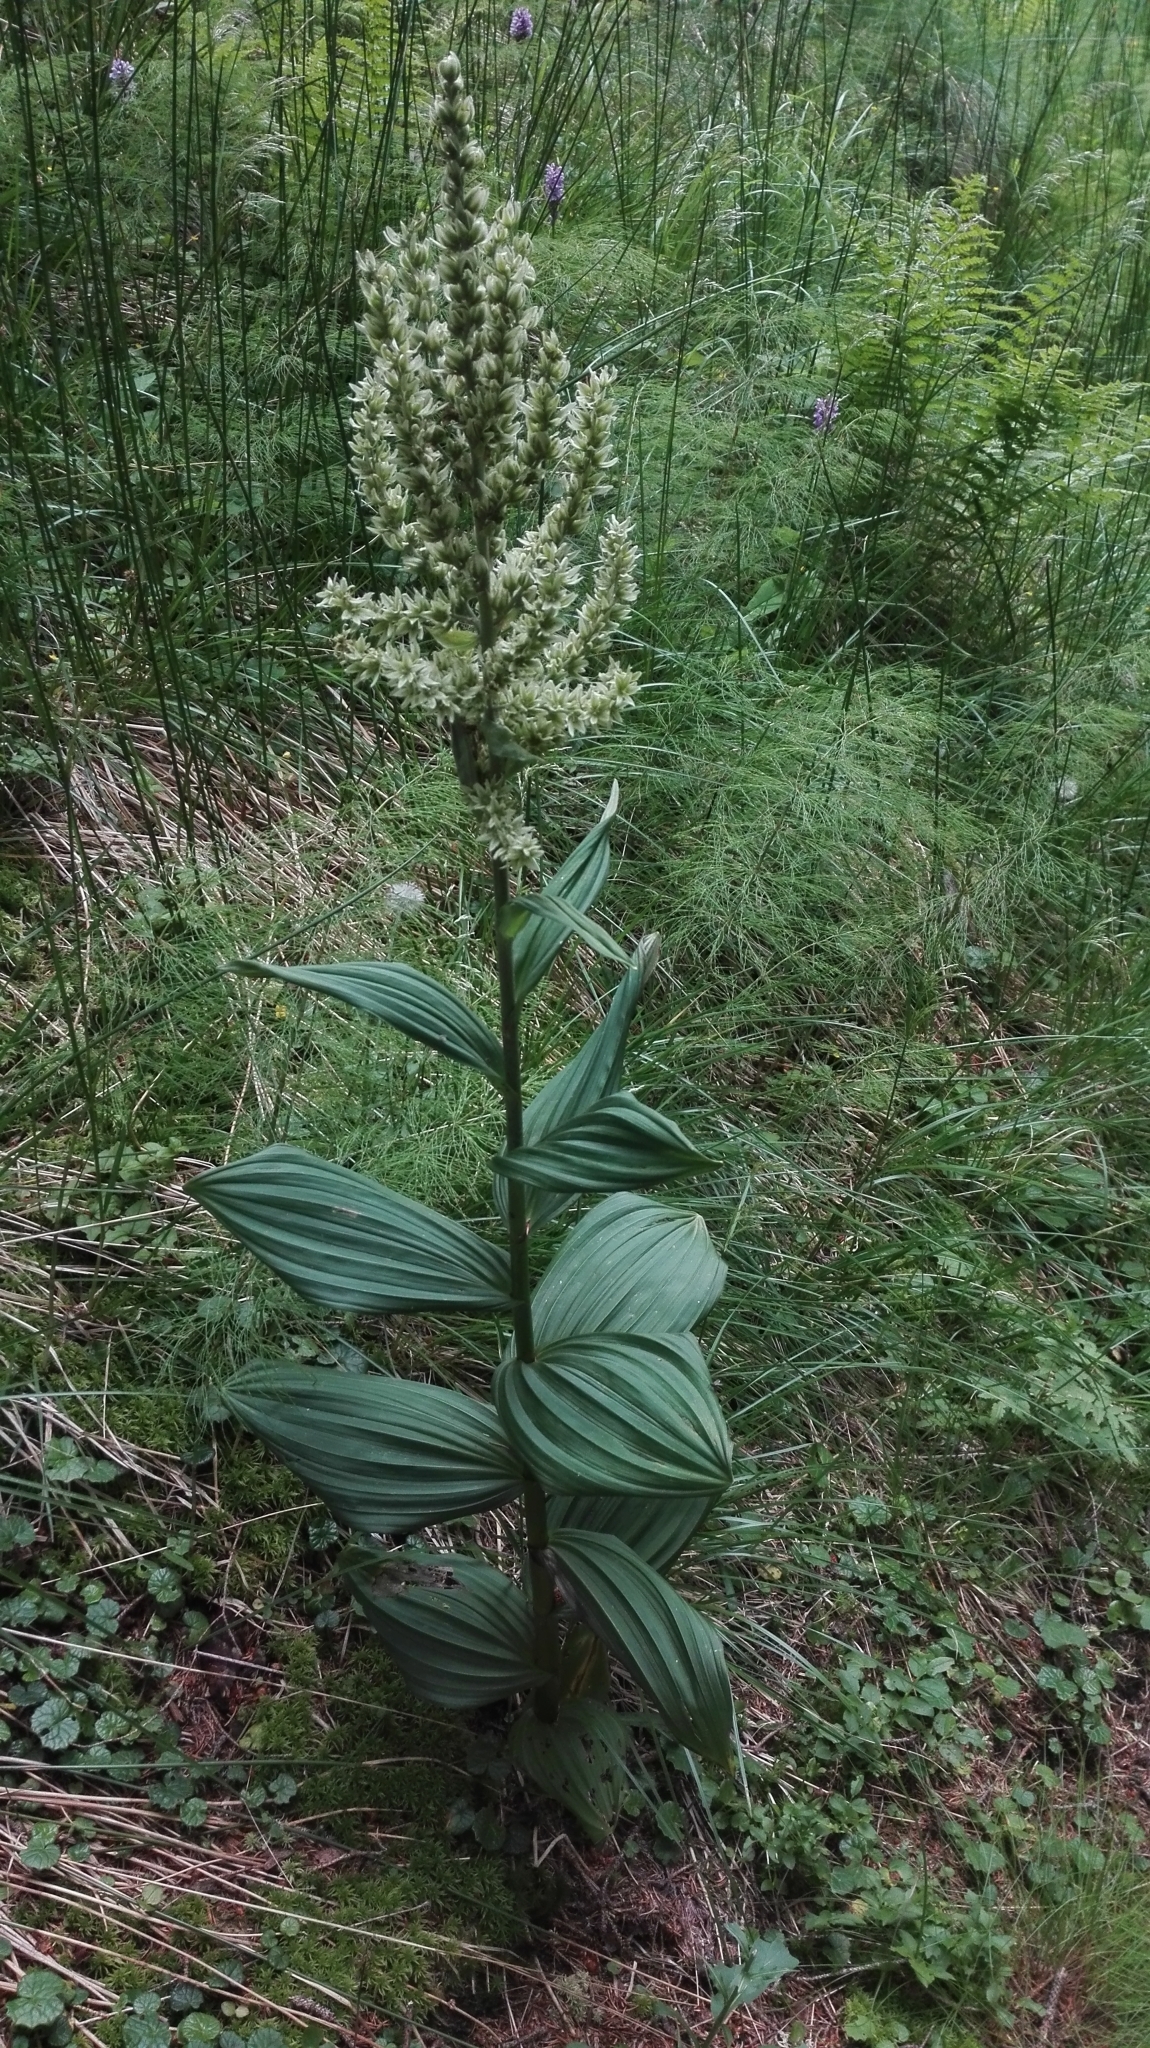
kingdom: Plantae
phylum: Tracheophyta
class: Liliopsida
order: Liliales
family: Melanthiaceae
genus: Veratrum
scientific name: Veratrum album
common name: White veratrum
